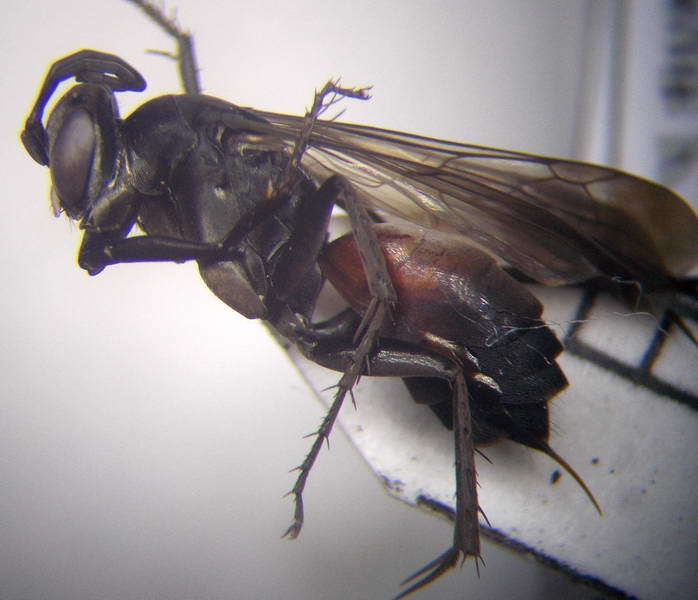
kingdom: Animalia
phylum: Arthropoda
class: Insecta
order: Hymenoptera
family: Pompilidae
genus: Telostegus
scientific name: Telostegus inermis
